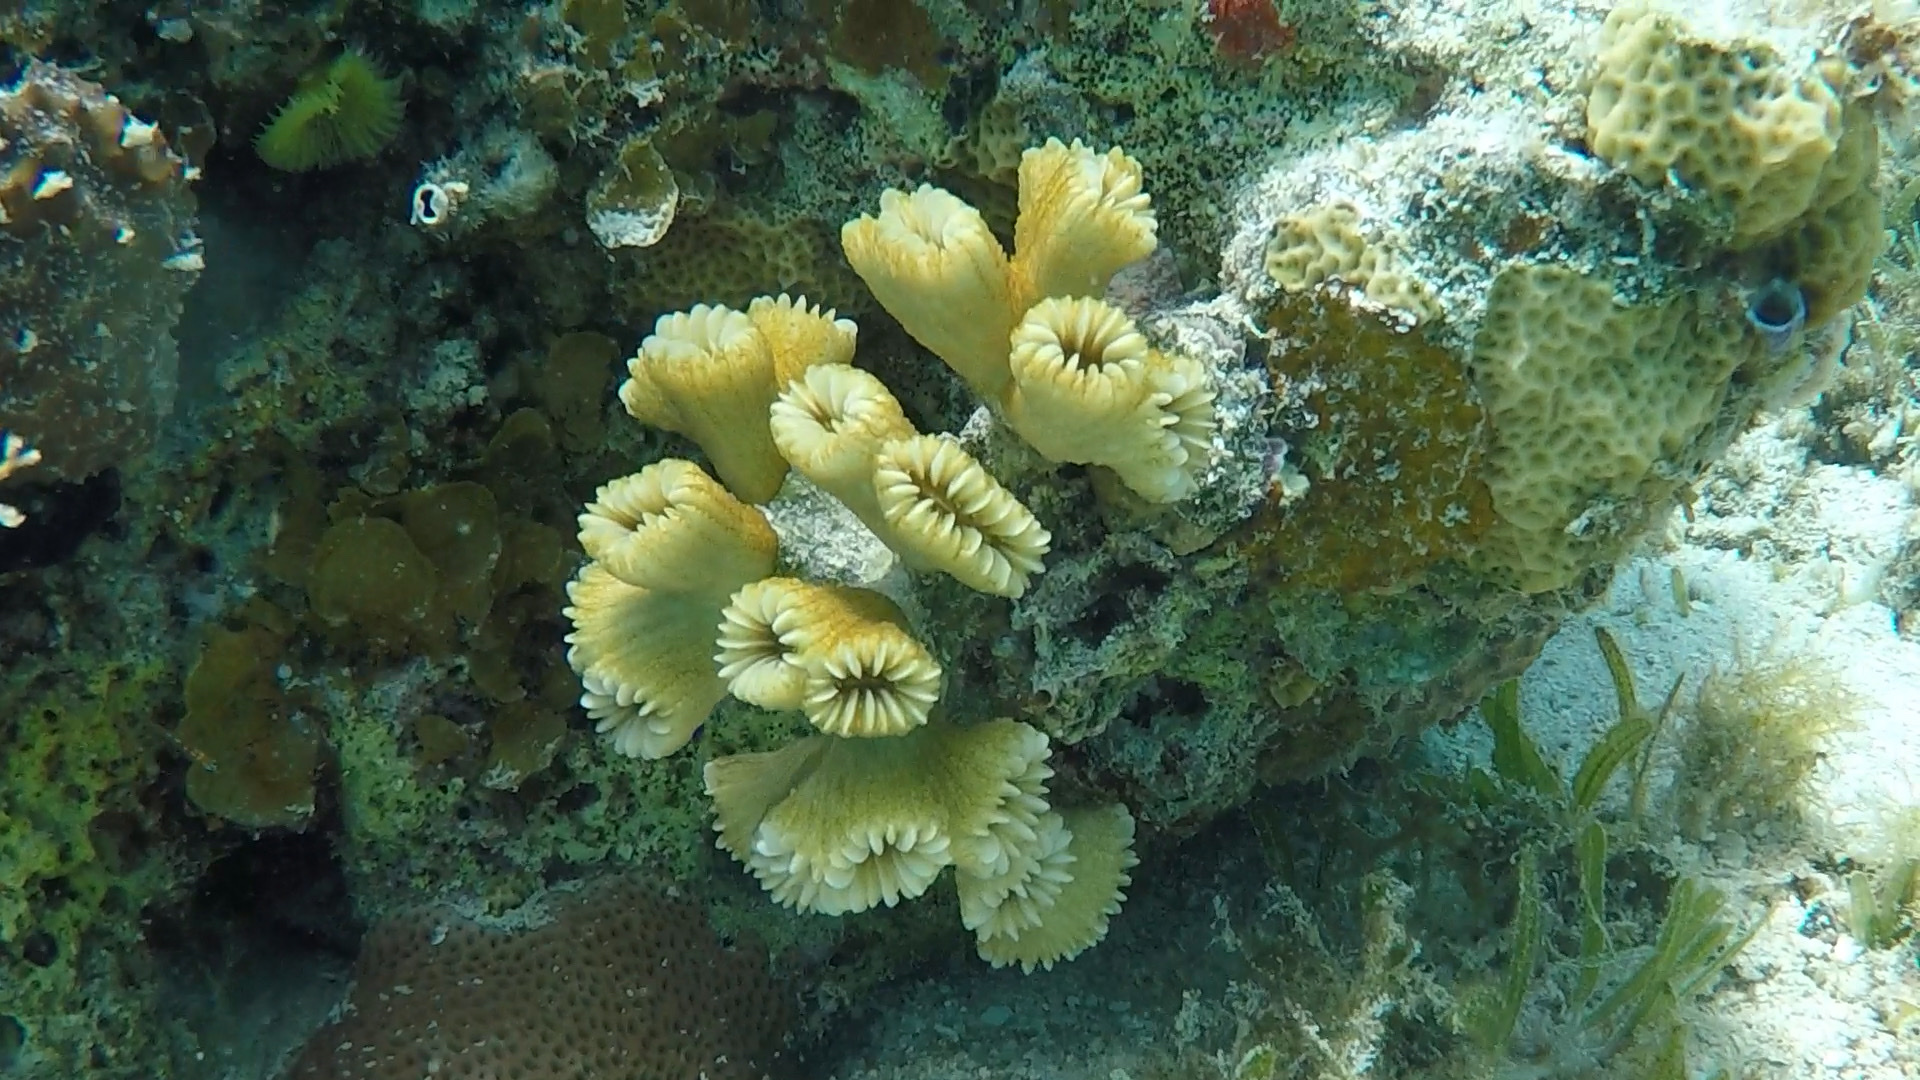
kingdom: Animalia
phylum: Cnidaria
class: Anthozoa
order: Scleractinia
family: Meandrinidae
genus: Eusmilia
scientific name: Eusmilia fastigiata
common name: Smooth flower coral
